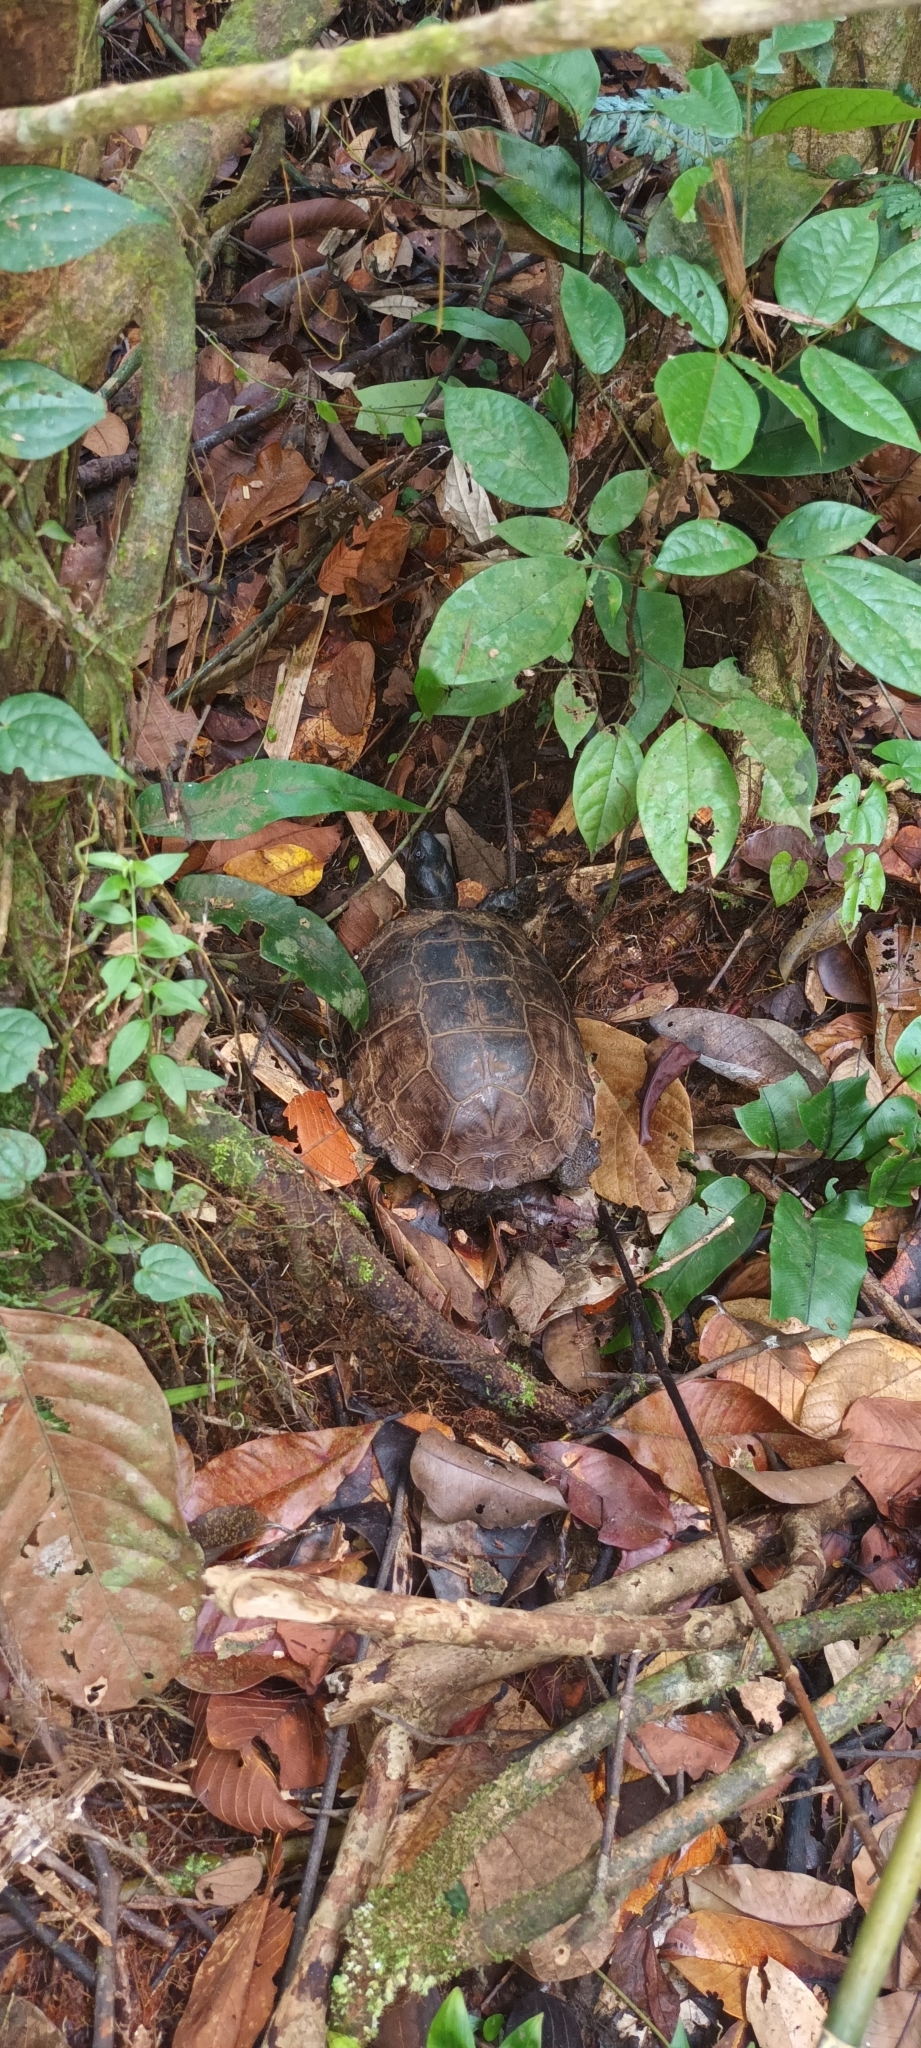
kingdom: Animalia
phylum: Chordata
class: Testudines
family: Geoemydidae
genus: Heosemys
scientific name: Heosemys spinosa
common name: Spiny turtle
